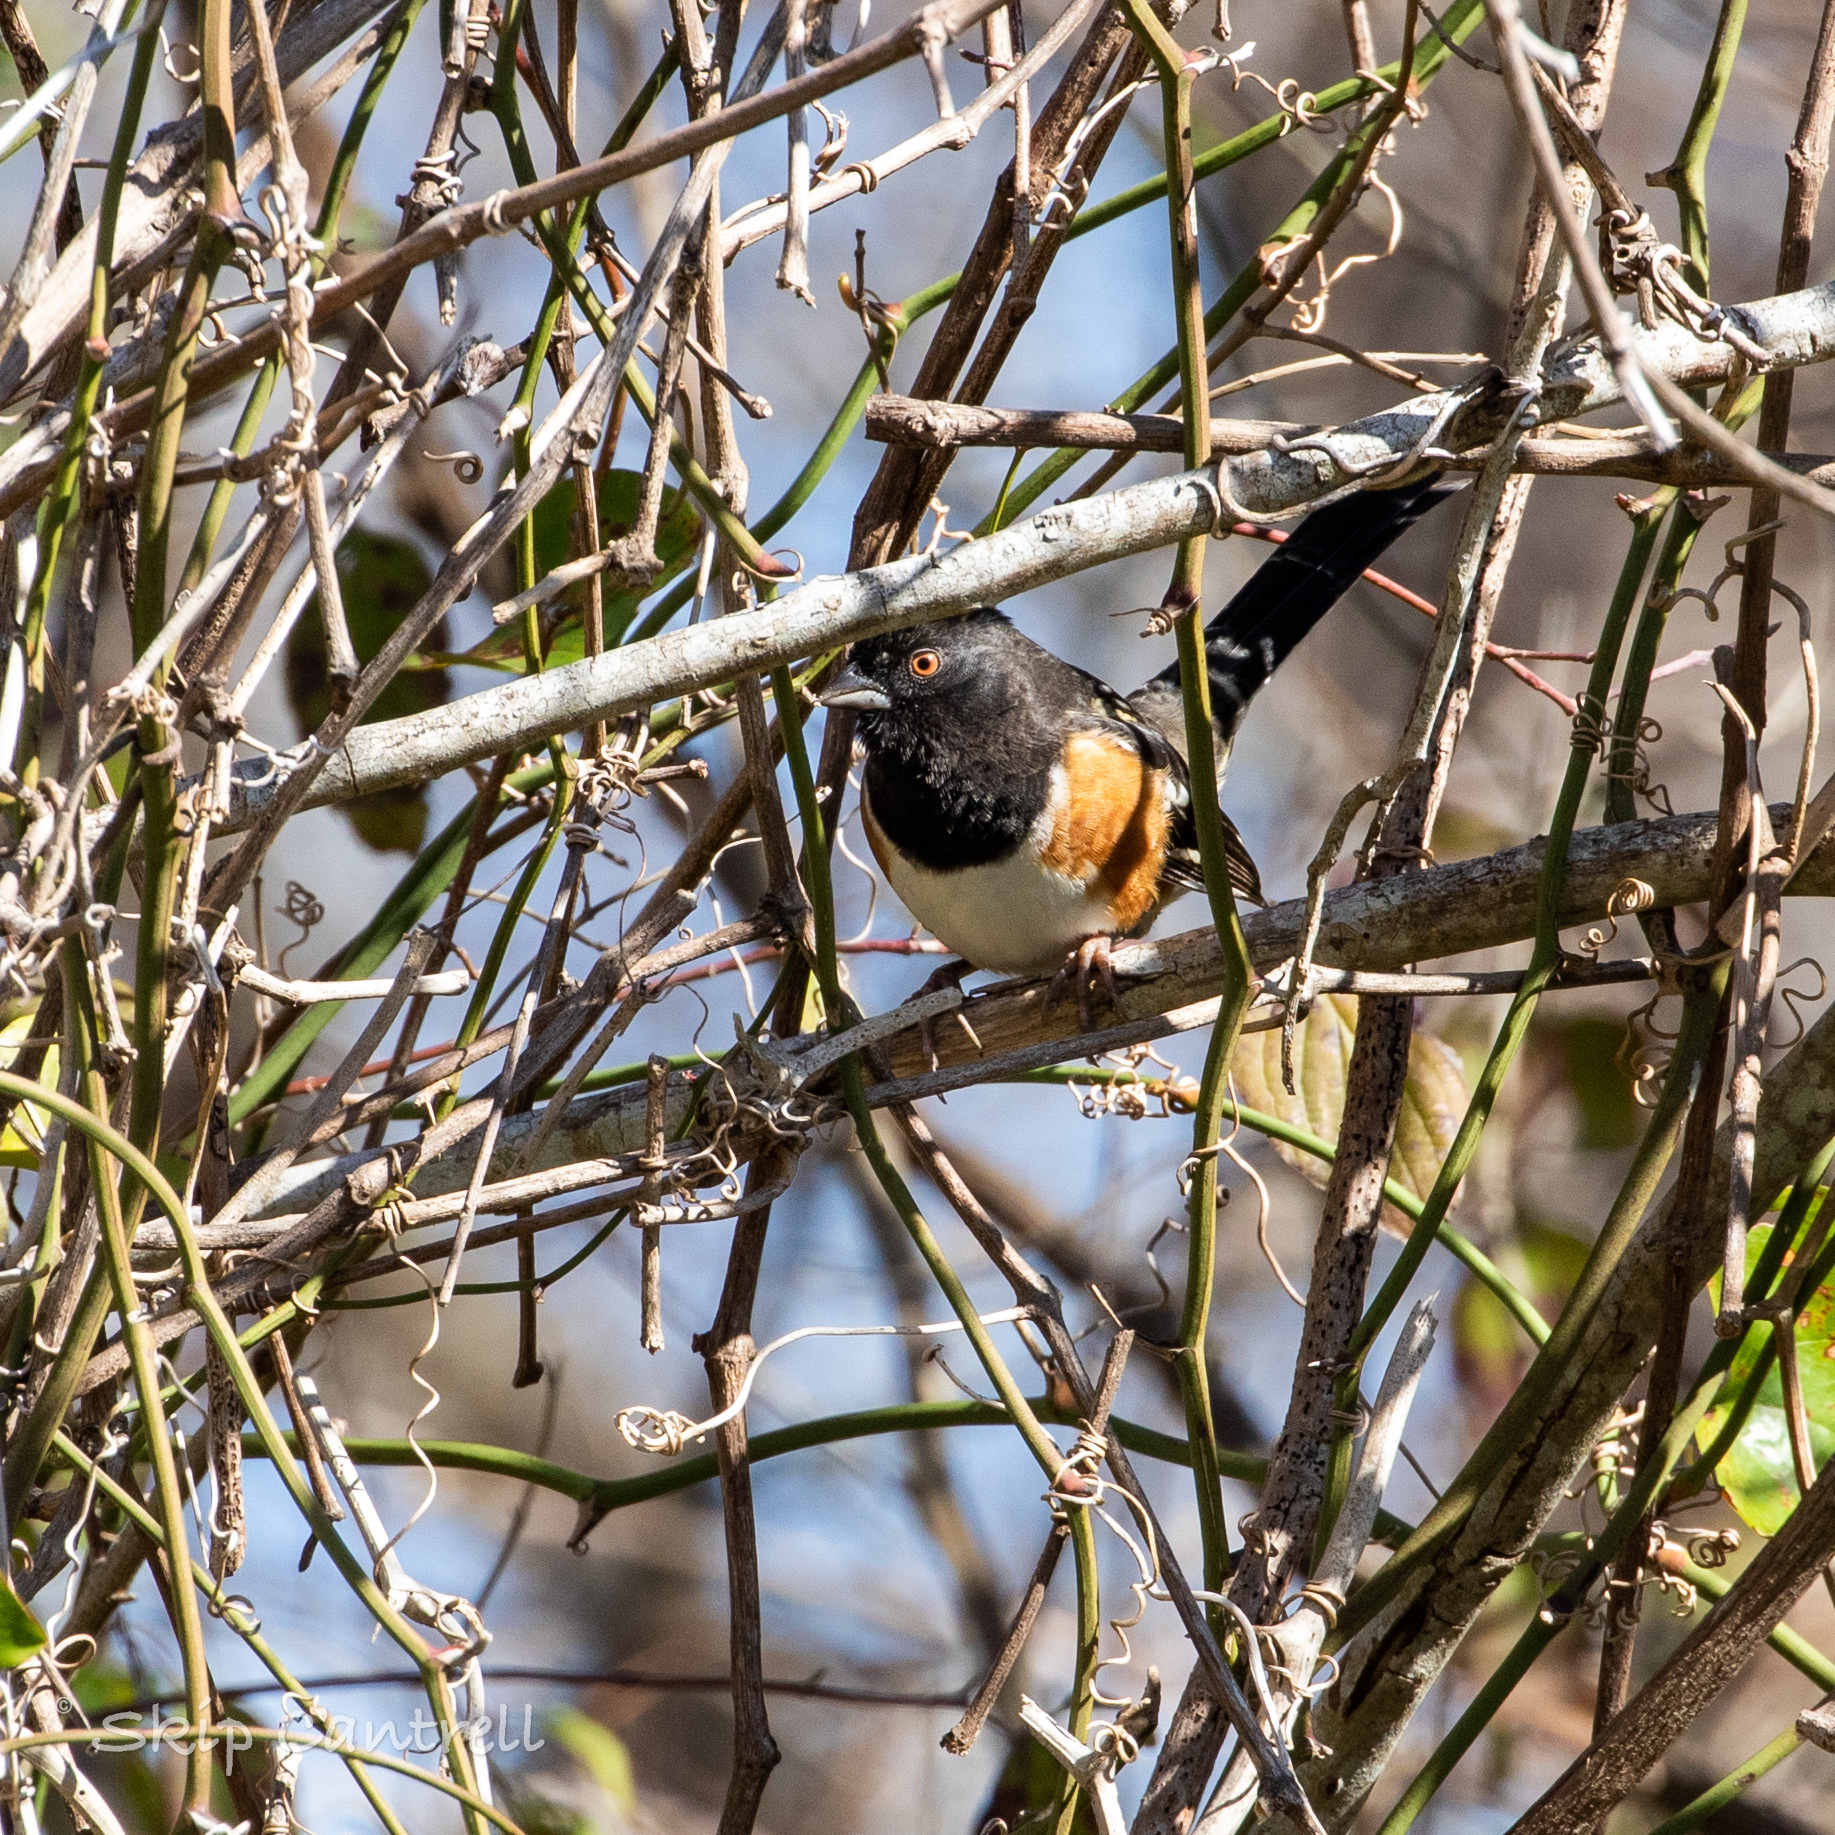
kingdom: Animalia
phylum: Chordata
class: Aves
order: Passeriformes
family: Passerellidae
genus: Pipilo
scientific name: Pipilo maculatus
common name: Spotted towhee
